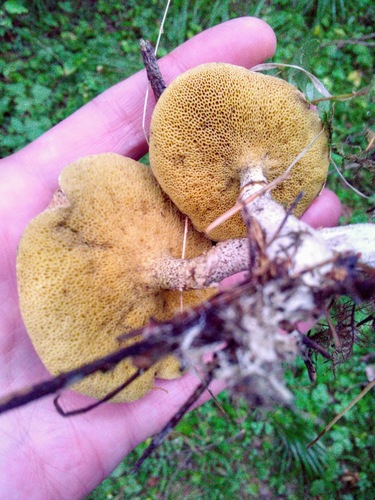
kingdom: Fungi
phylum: Basidiomycota
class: Agaricomycetes
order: Boletales
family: Suillaceae
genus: Suillus
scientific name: Suillus
